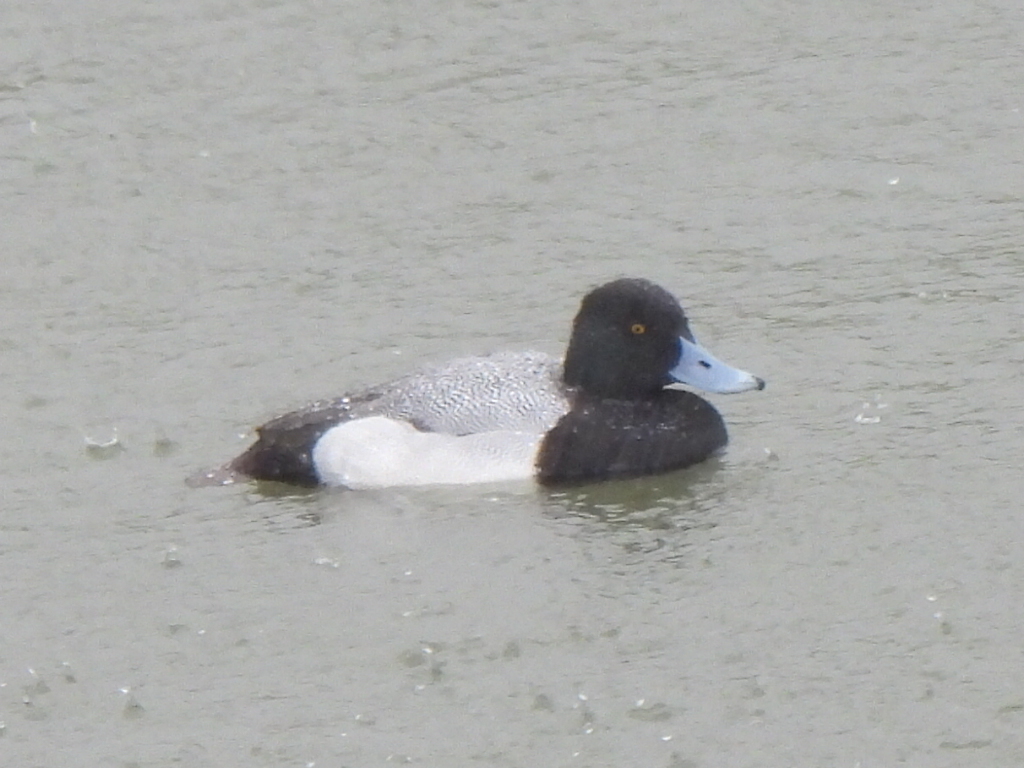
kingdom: Animalia
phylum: Chordata
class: Aves
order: Anseriformes
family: Anatidae
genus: Aythya
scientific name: Aythya affinis
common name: Lesser scaup
